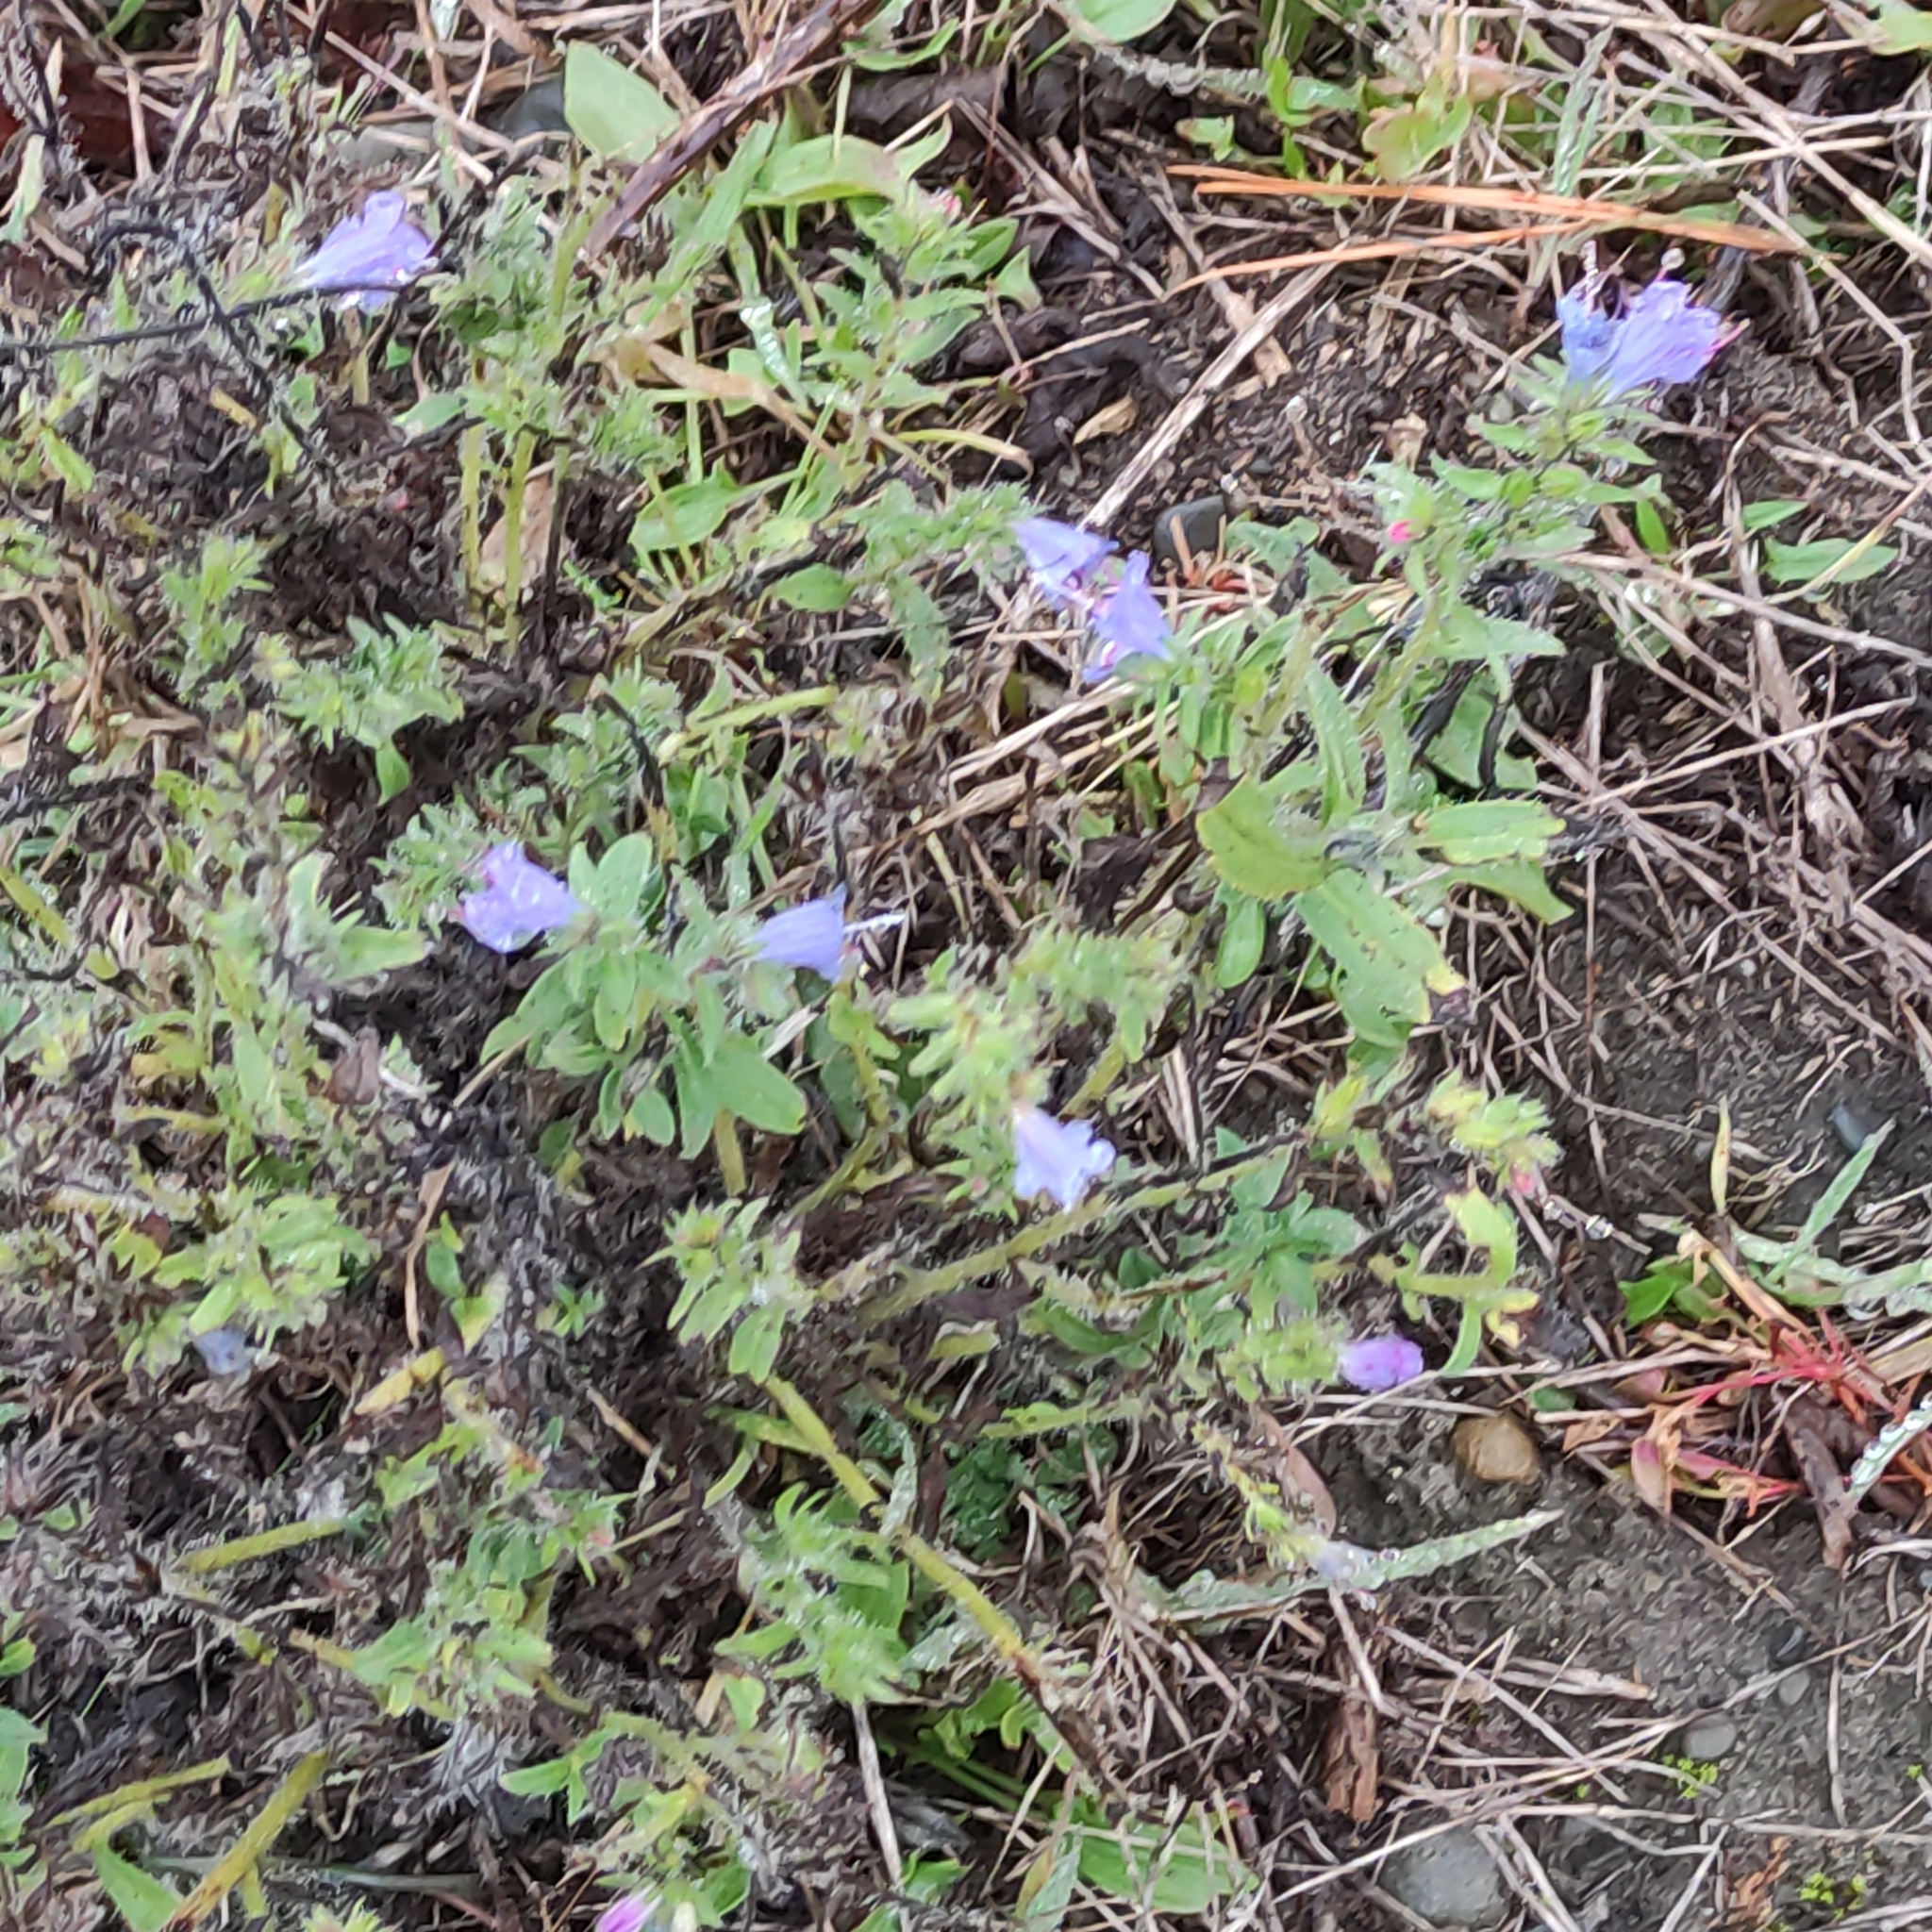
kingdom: Plantae
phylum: Tracheophyta
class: Magnoliopsida
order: Boraginales
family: Boraginaceae
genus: Echium
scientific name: Echium vulgare
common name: Common viper's bugloss
